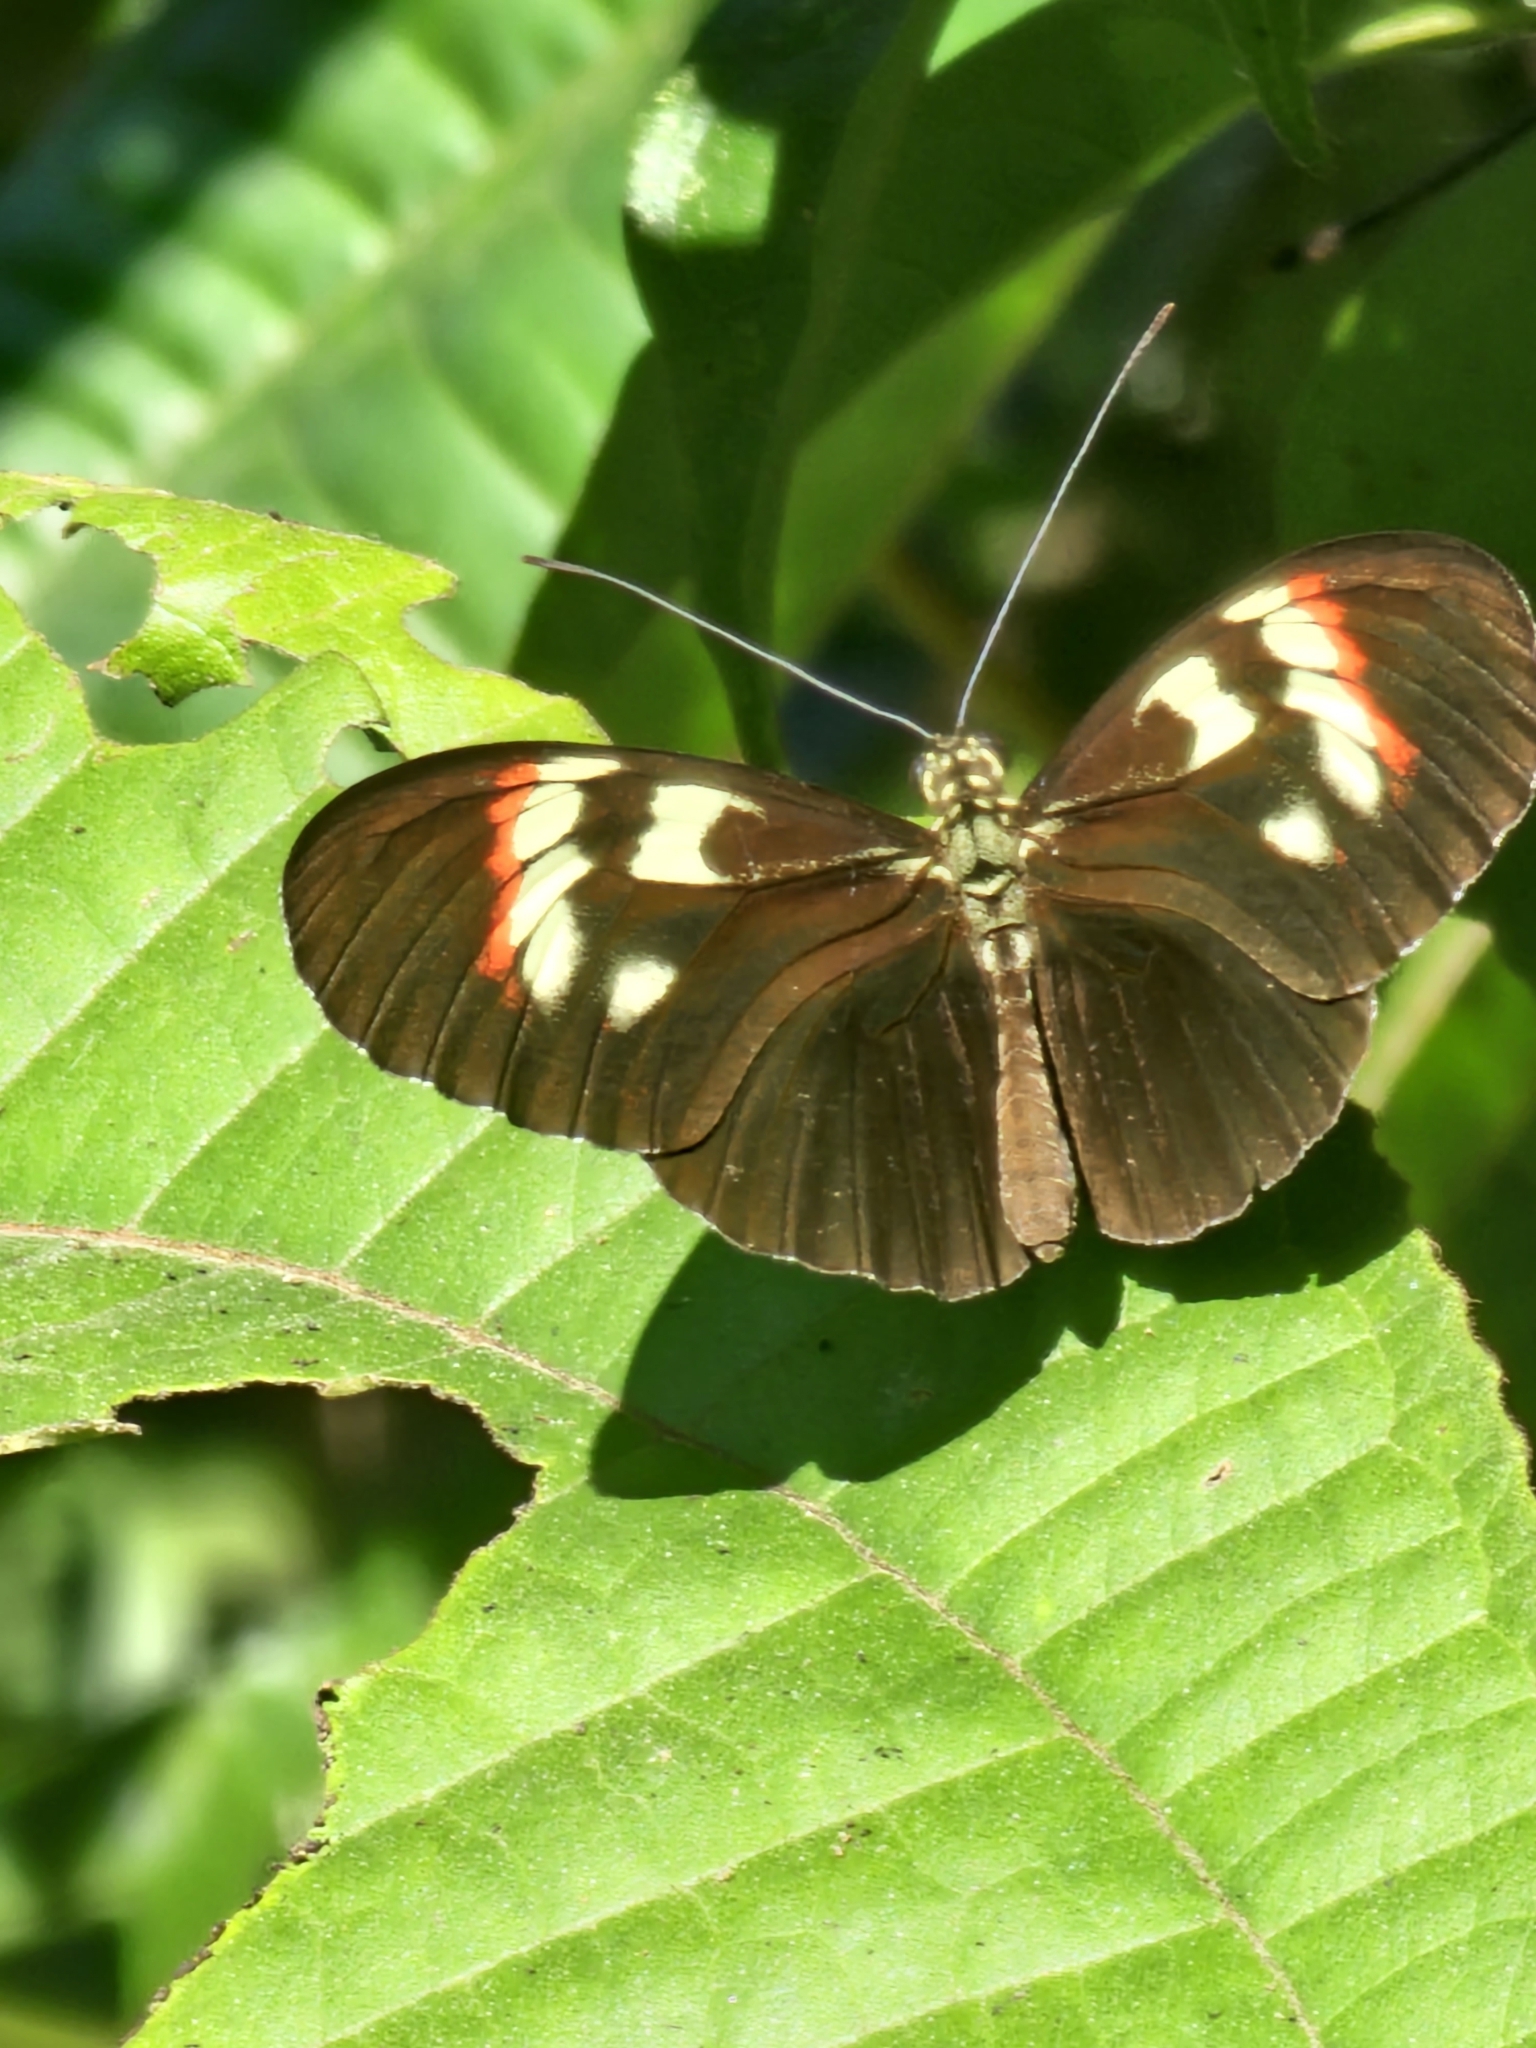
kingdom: Animalia
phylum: Arthropoda
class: Insecta
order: Lepidoptera
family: Nymphalidae
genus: Heliconius
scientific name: Heliconius melpomene
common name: Postman
